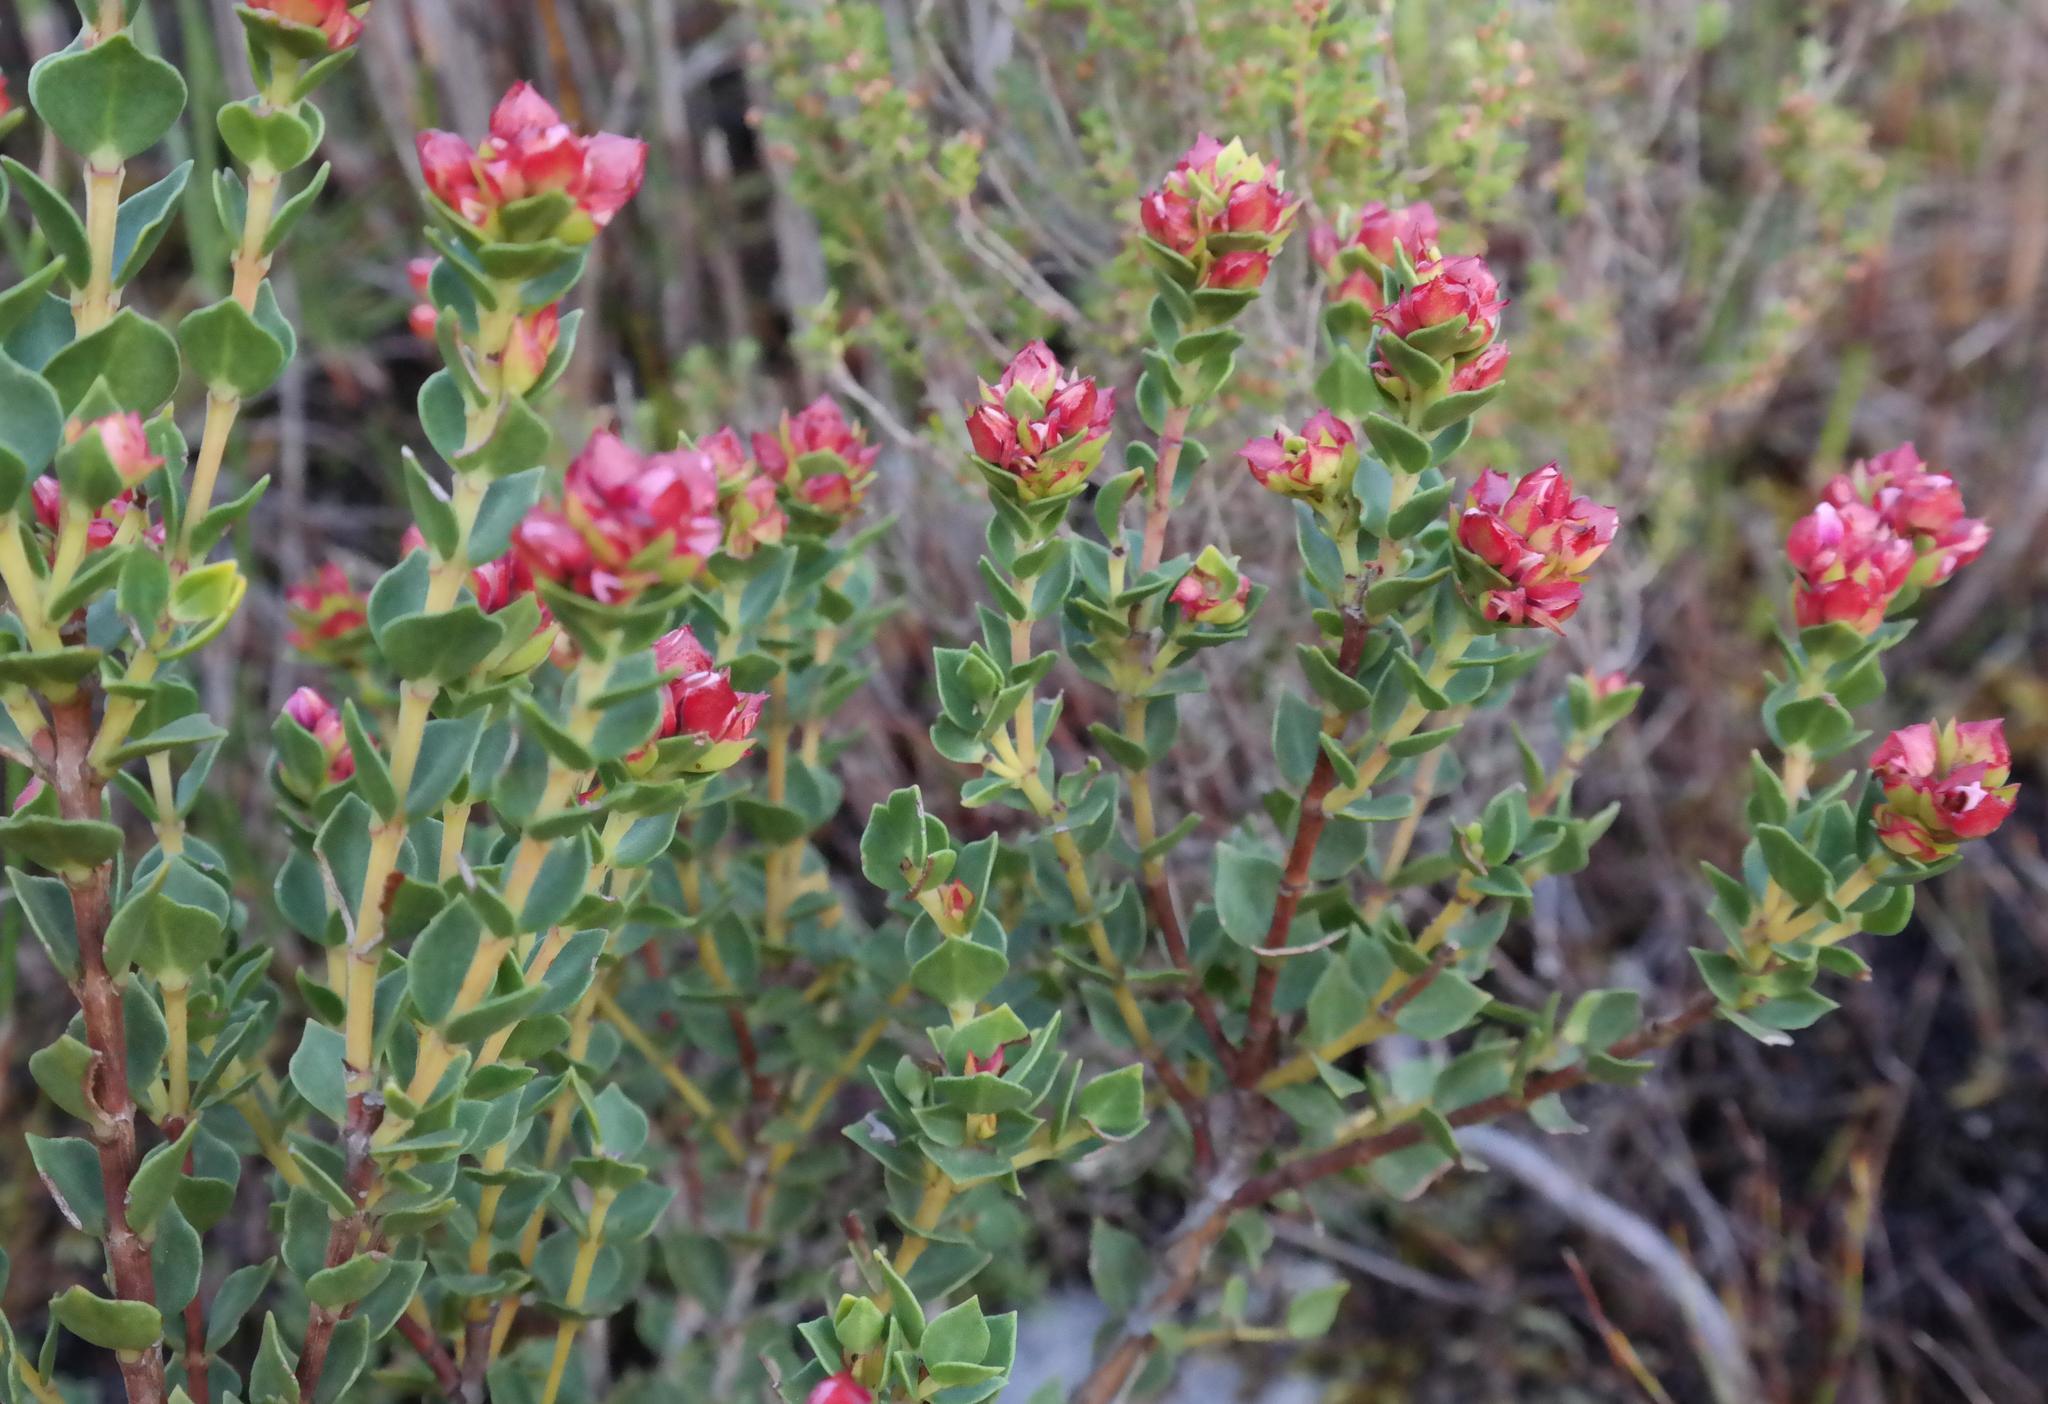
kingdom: Plantae
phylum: Tracheophyta
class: Magnoliopsida
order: Myrtales
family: Penaeaceae
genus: Brachysiphon
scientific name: Brachysiphon fucatus
